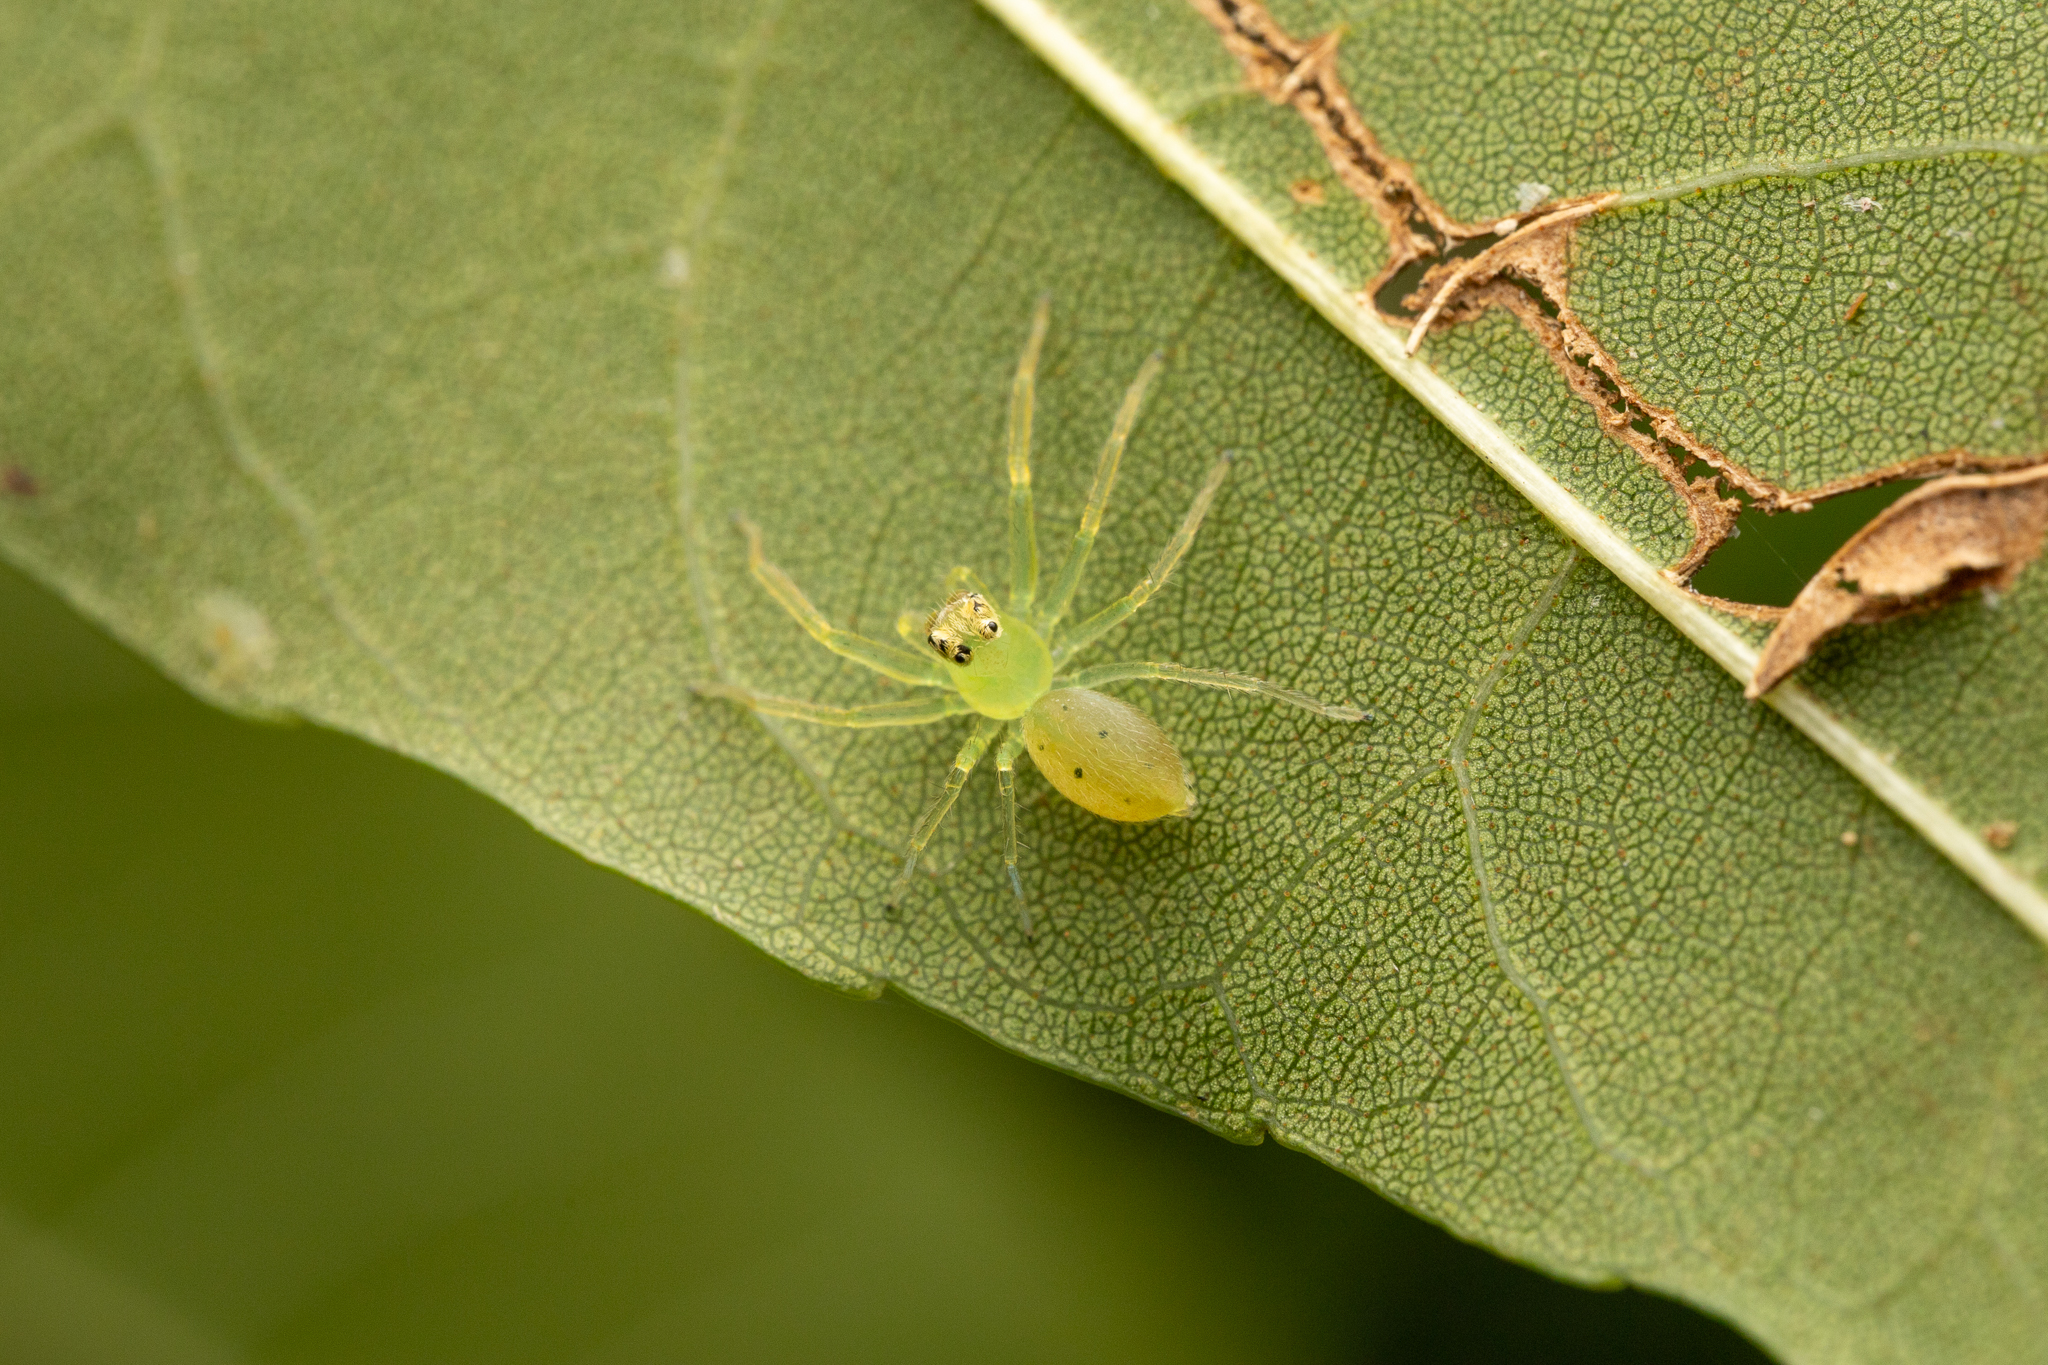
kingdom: Animalia
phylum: Arthropoda
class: Arachnida
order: Araneae
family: Salticidae
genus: Lyssomanes
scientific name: Lyssomanes viridis
